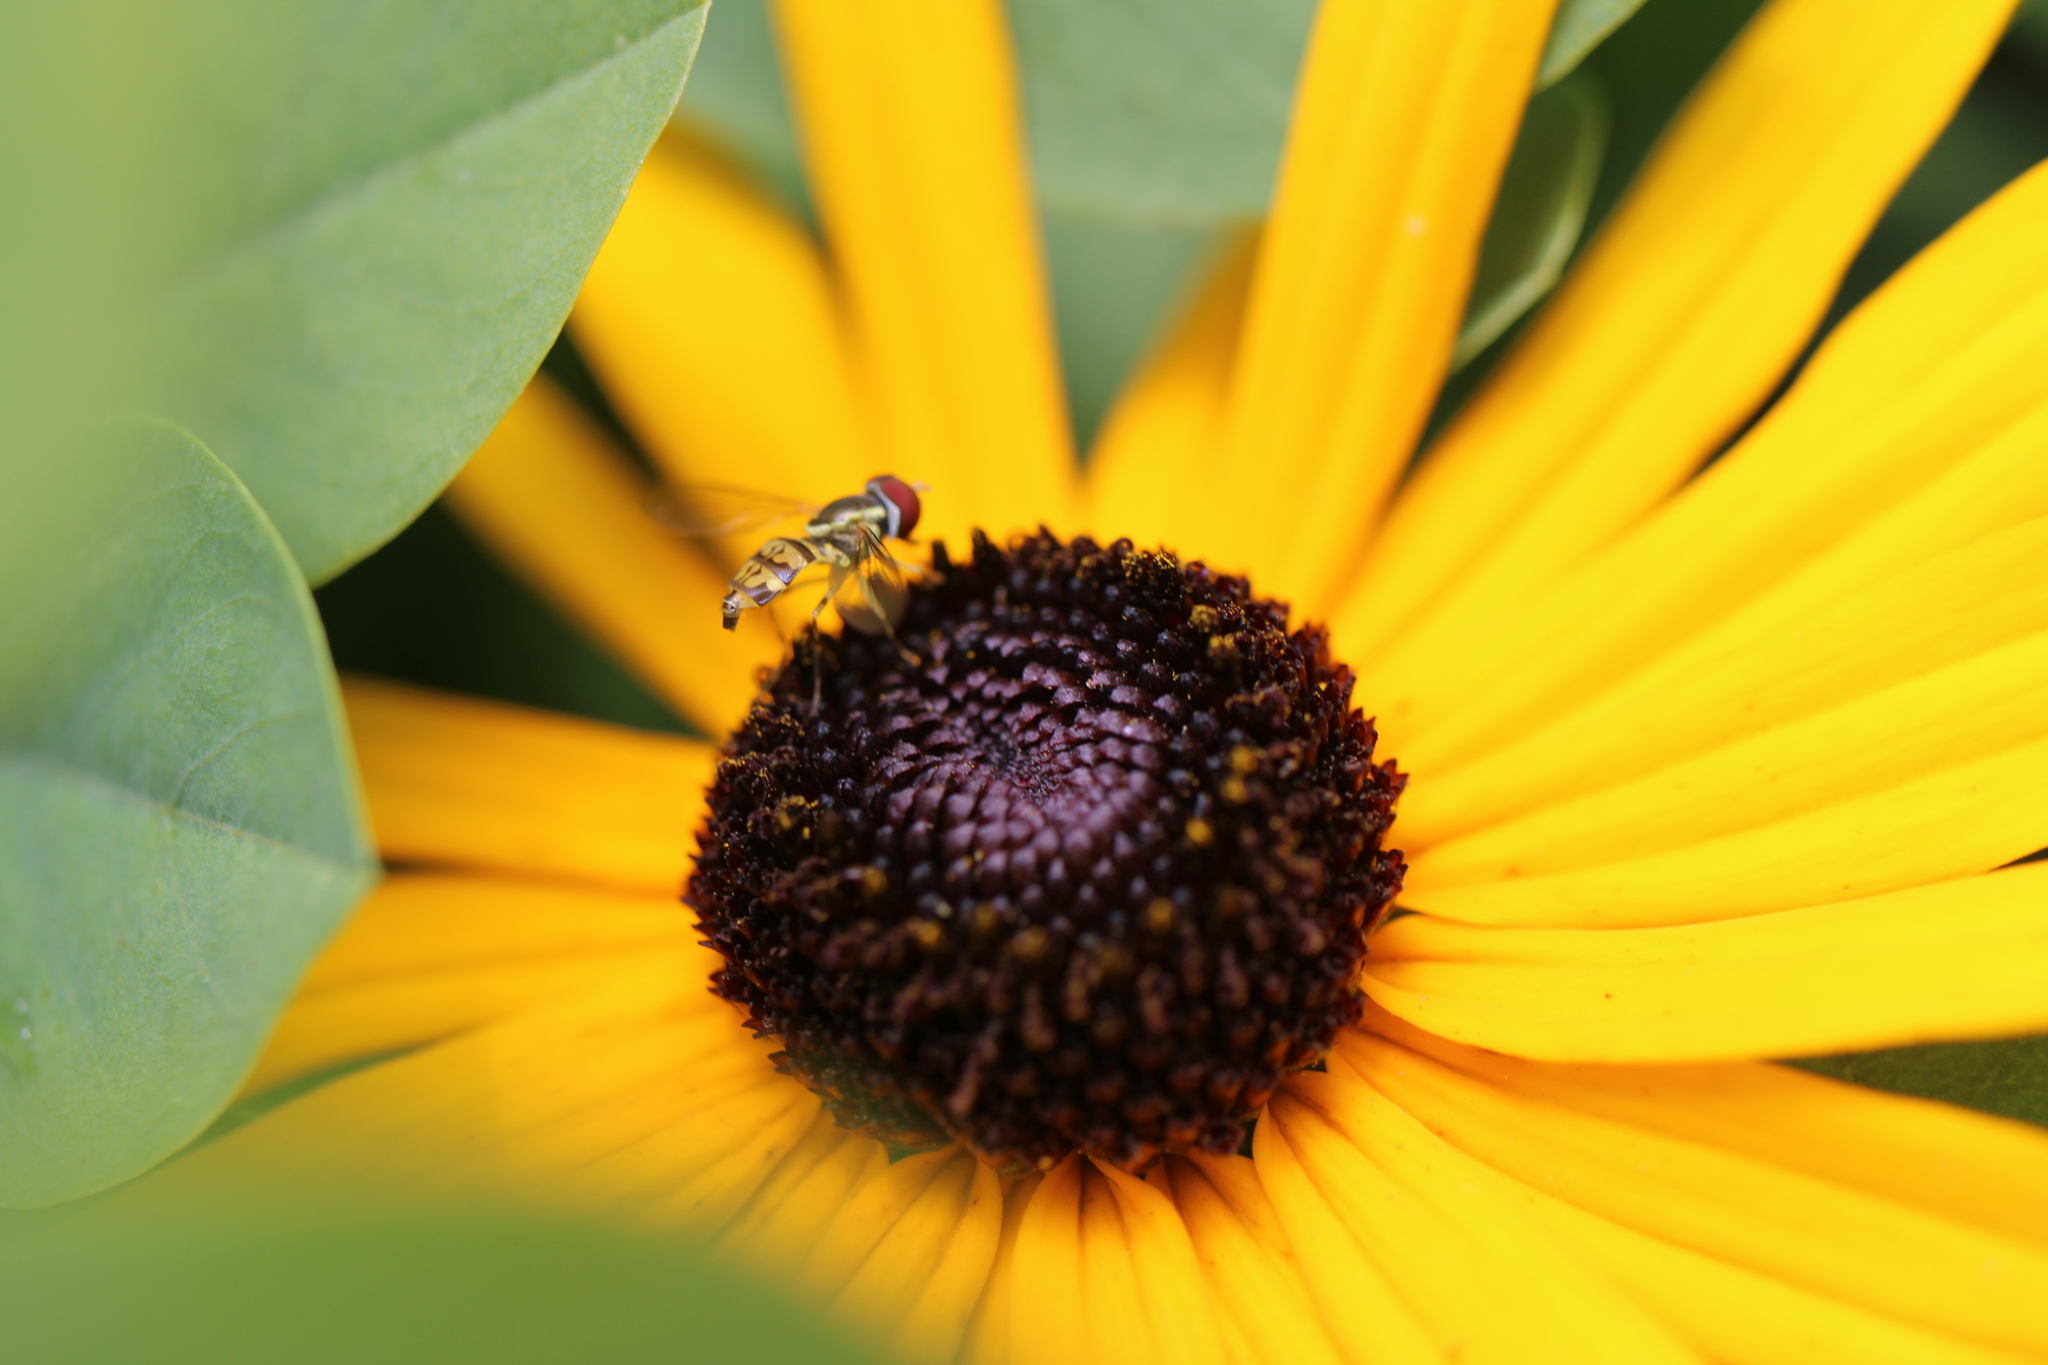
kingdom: Animalia
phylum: Arthropoda
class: Insecta
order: Diptera
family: Syrphidae
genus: Toxomerus
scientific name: Toxomerus geminatus
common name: Eastern calligrapher
